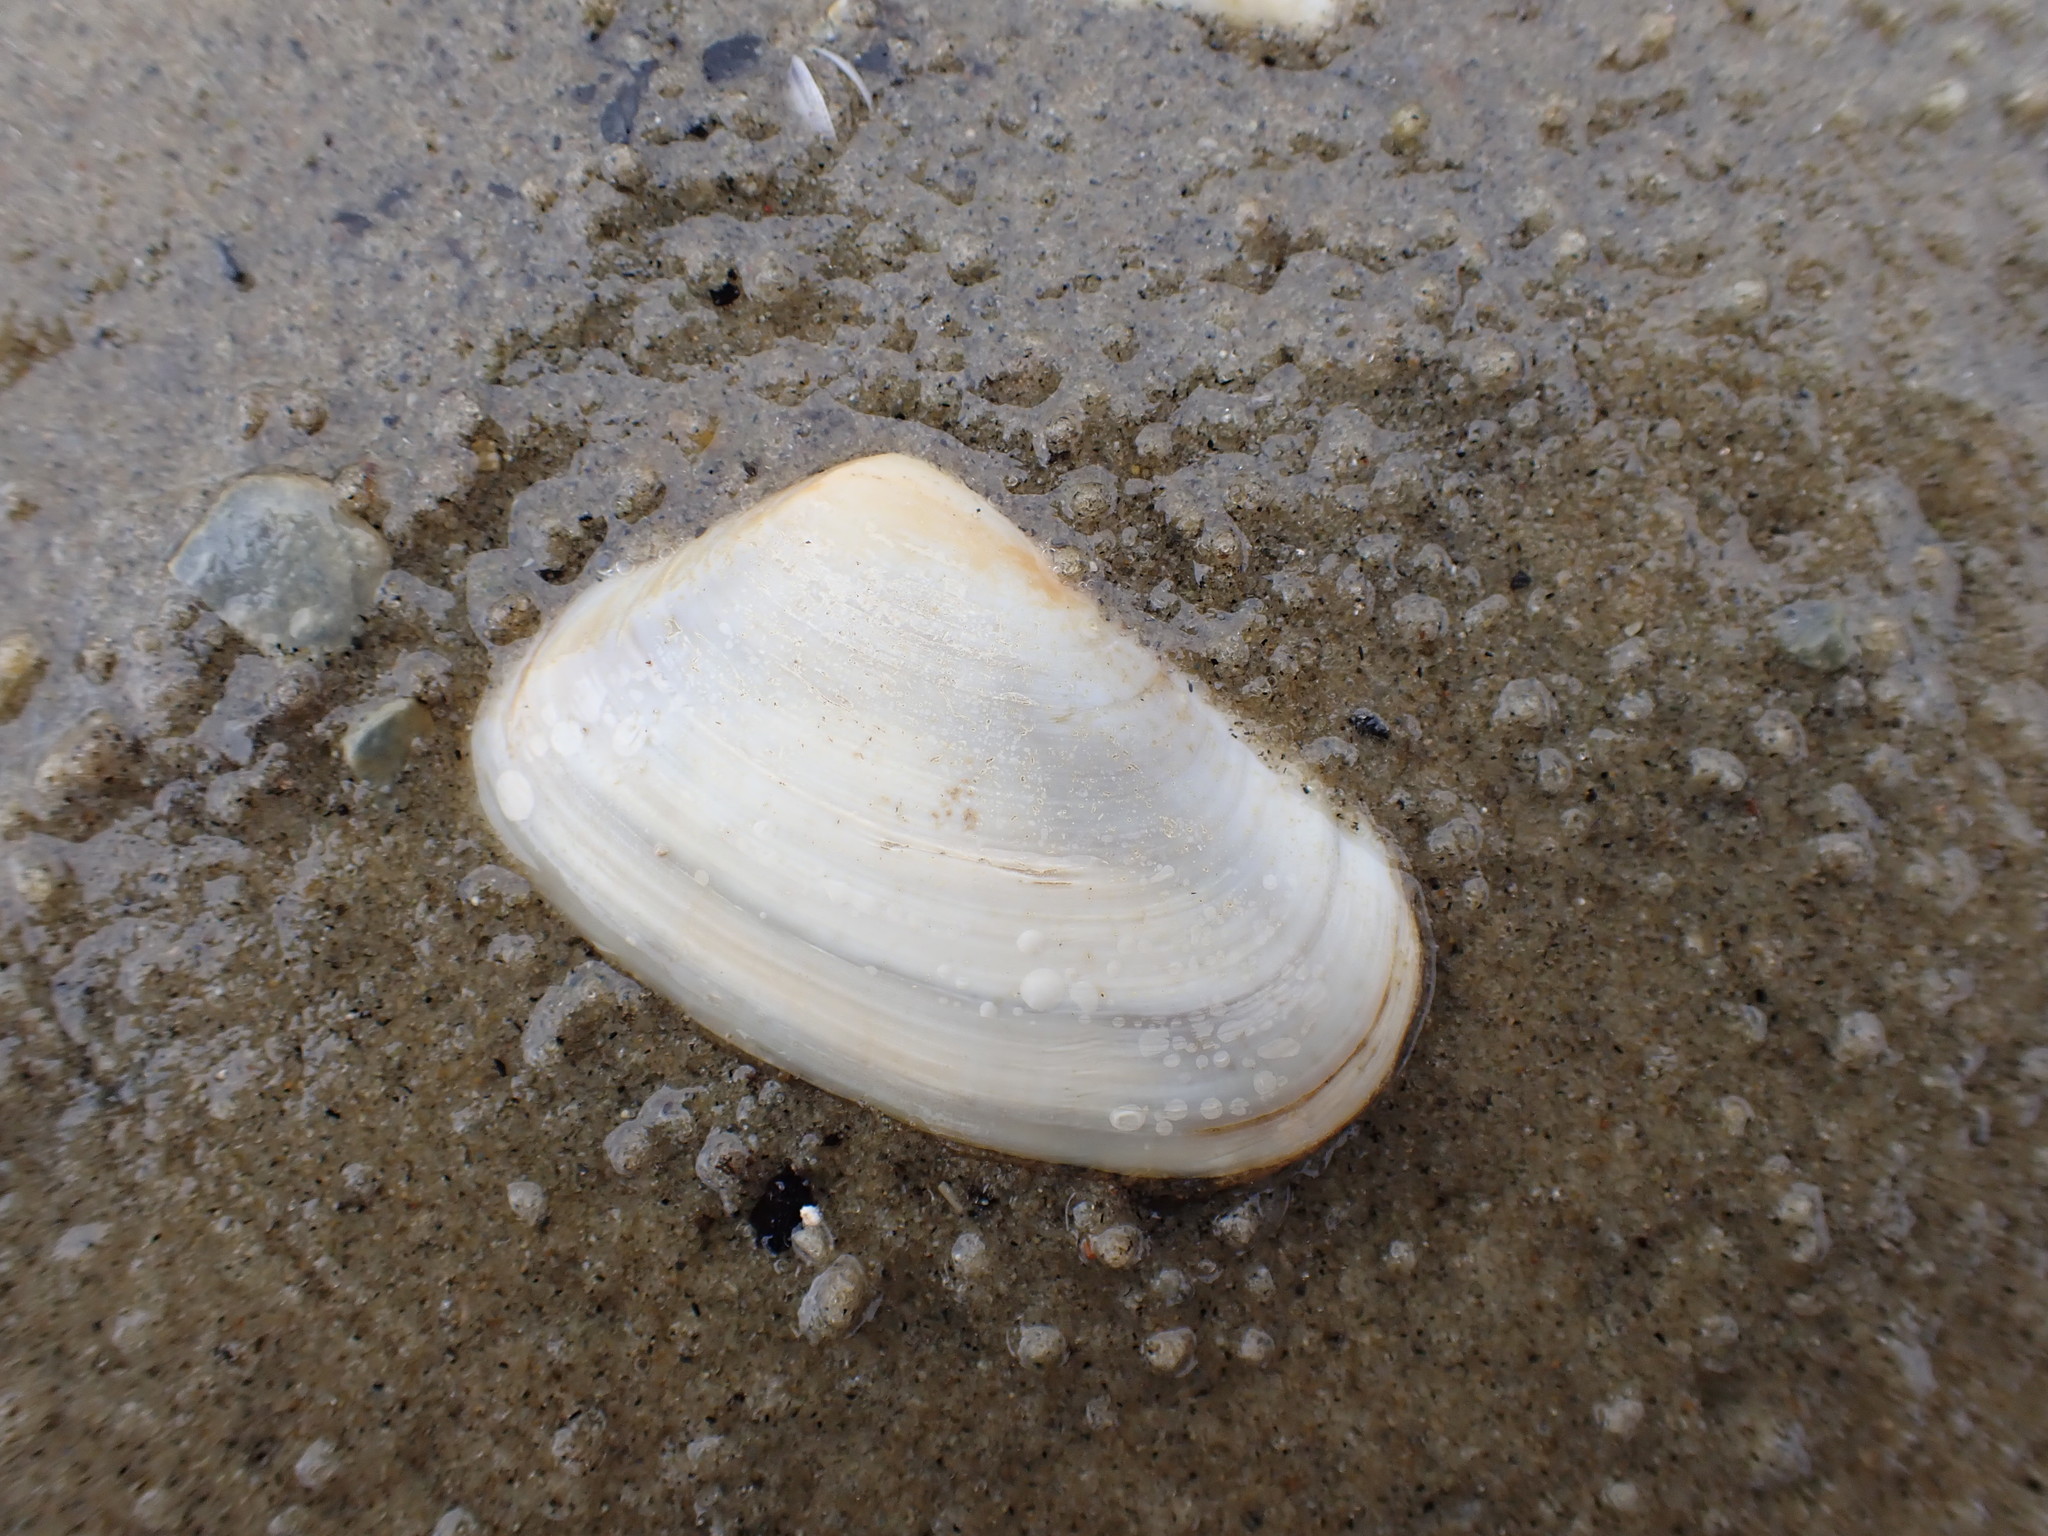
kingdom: Animalia
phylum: Mollusca
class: Bivalvia
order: Venerida
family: Mesodesmatidae
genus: Paphies
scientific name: Paphies subtriangulata
